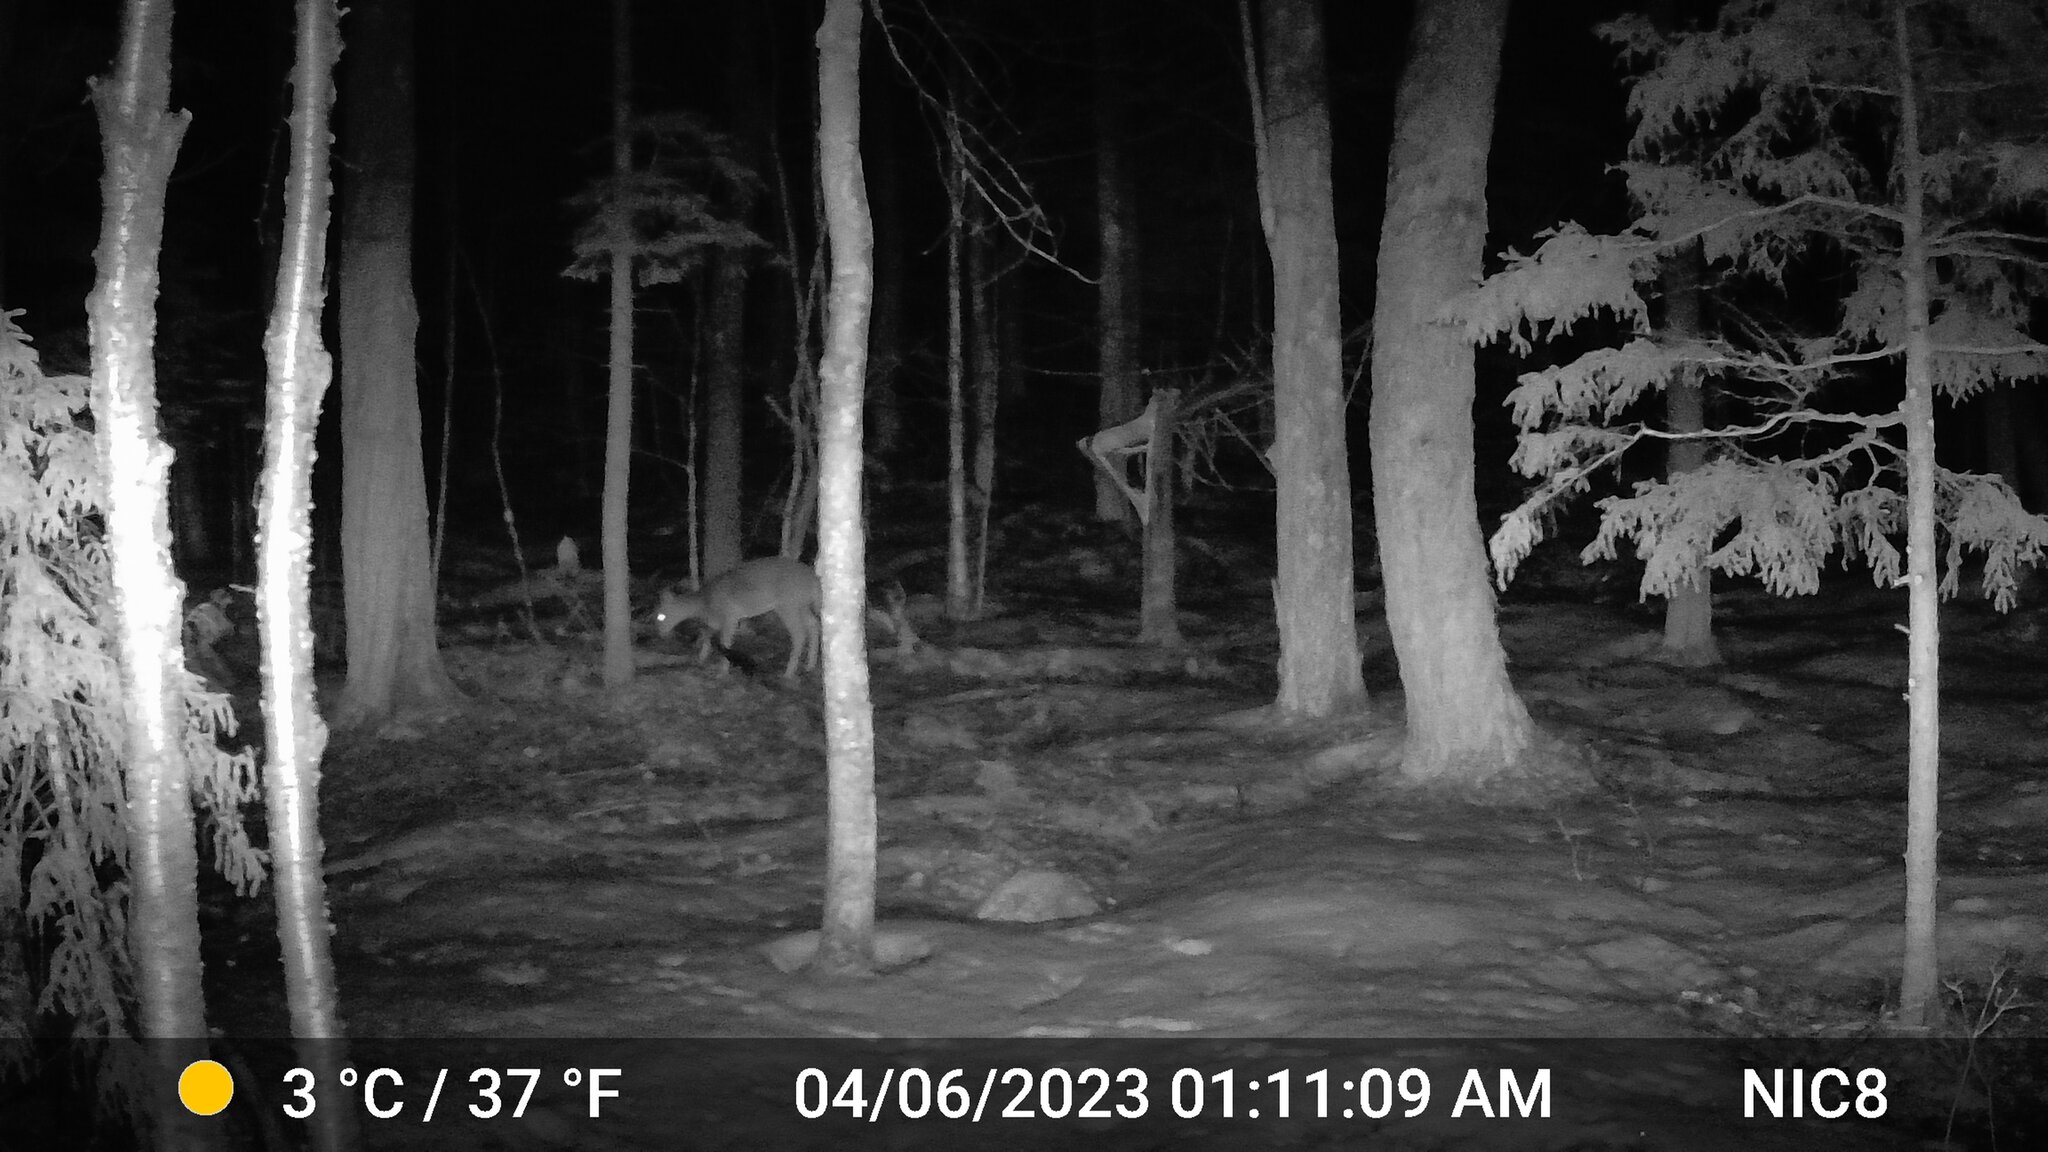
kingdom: Animalia
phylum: Chordata
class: Mammalia
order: Artiodactyla
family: Cervidae
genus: Odocoileus
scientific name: Odocoileus virginianus
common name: White-tailed deer
